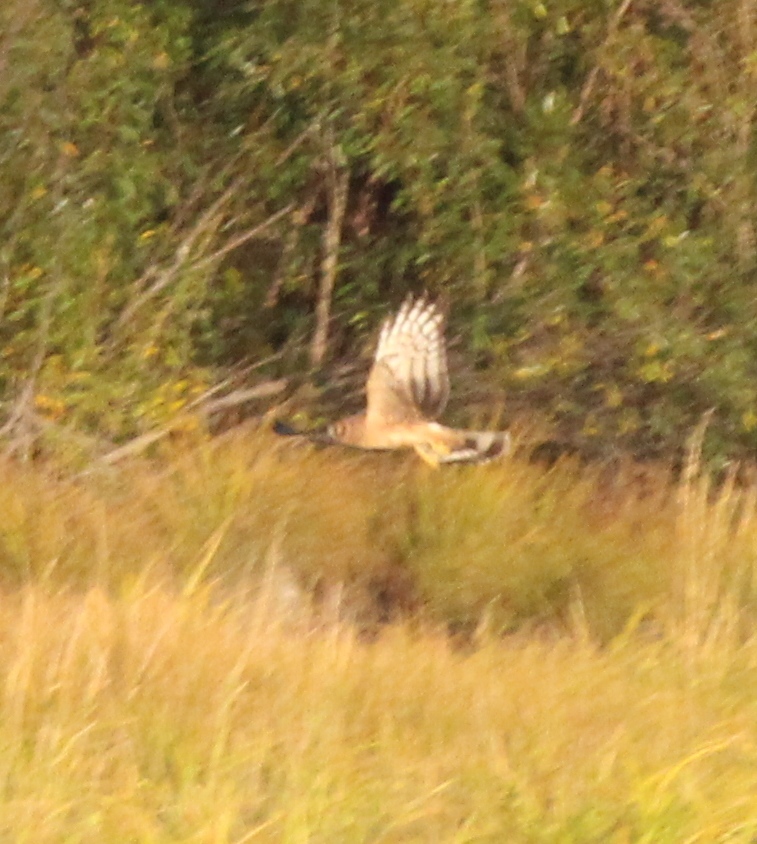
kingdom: Animalia
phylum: Chordata
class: Aves
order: Accipitriformes
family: Accipitridae
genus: Circus
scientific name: Circus cyaneus
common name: Hen harrier
